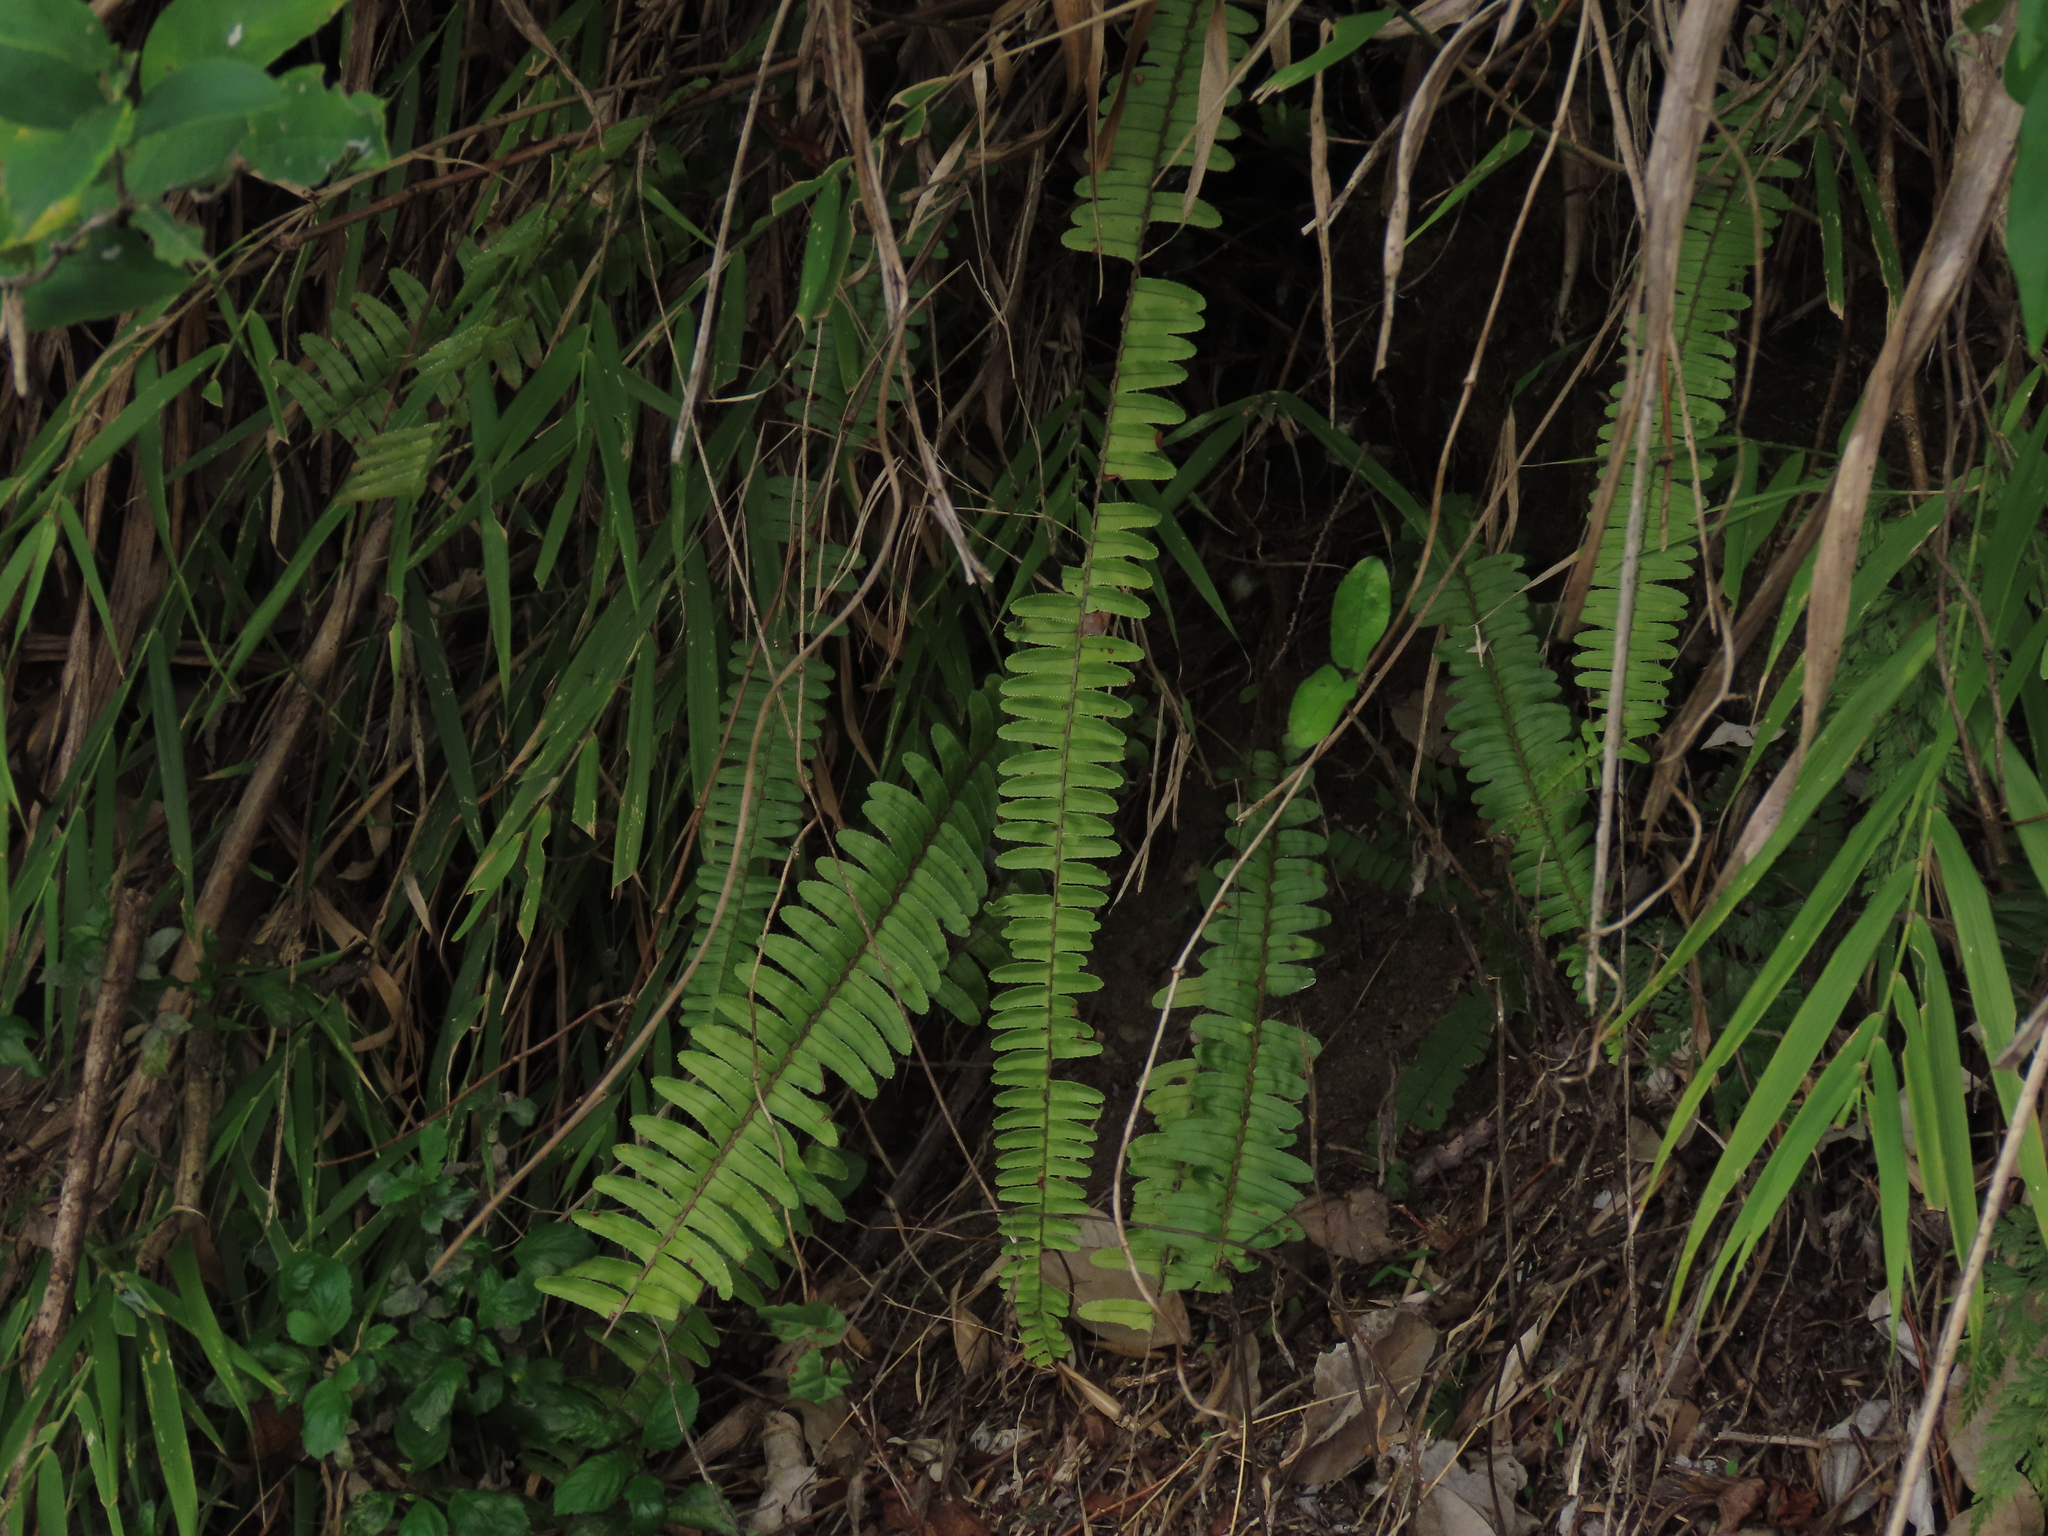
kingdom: Plantae
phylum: Tracheophyta
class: Polypodiopsida
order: Polypodiales
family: Nephrolepidaceae
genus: Nephrolepis
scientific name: Nephrolepis cordifolia
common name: Narrow swordfern
